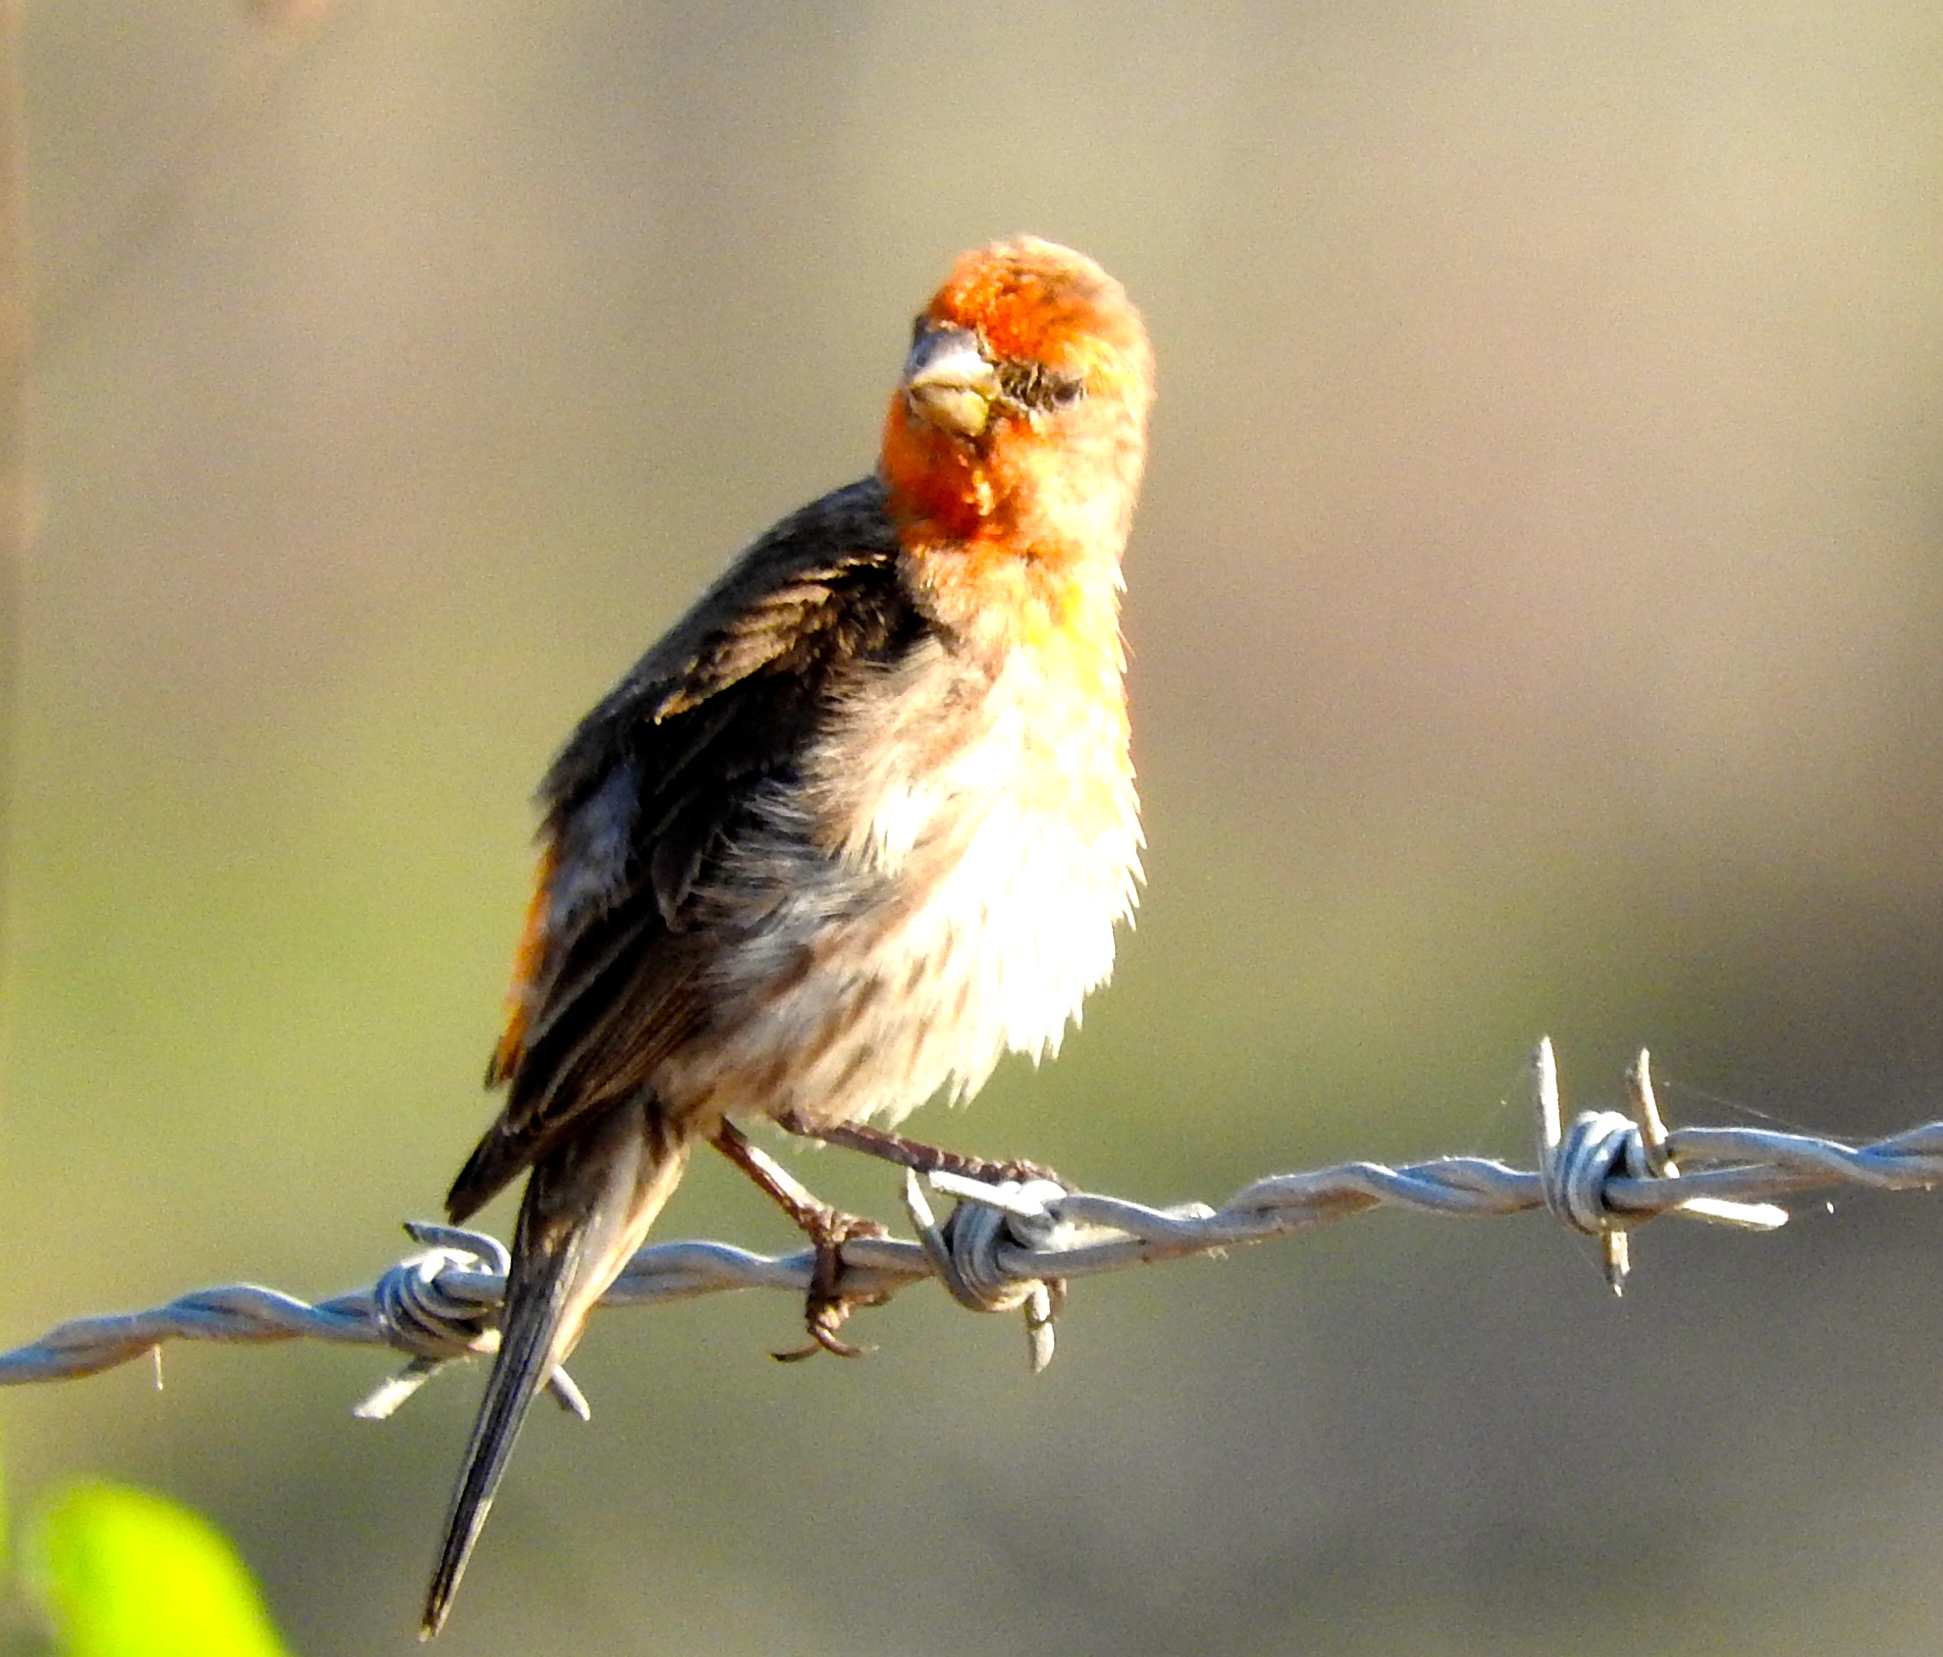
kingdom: Animalia
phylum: Chordata
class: Aves
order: Passeriformes
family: Fringillidae
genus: Haemorhous
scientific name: Haemorhous mexicanus
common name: House finch
